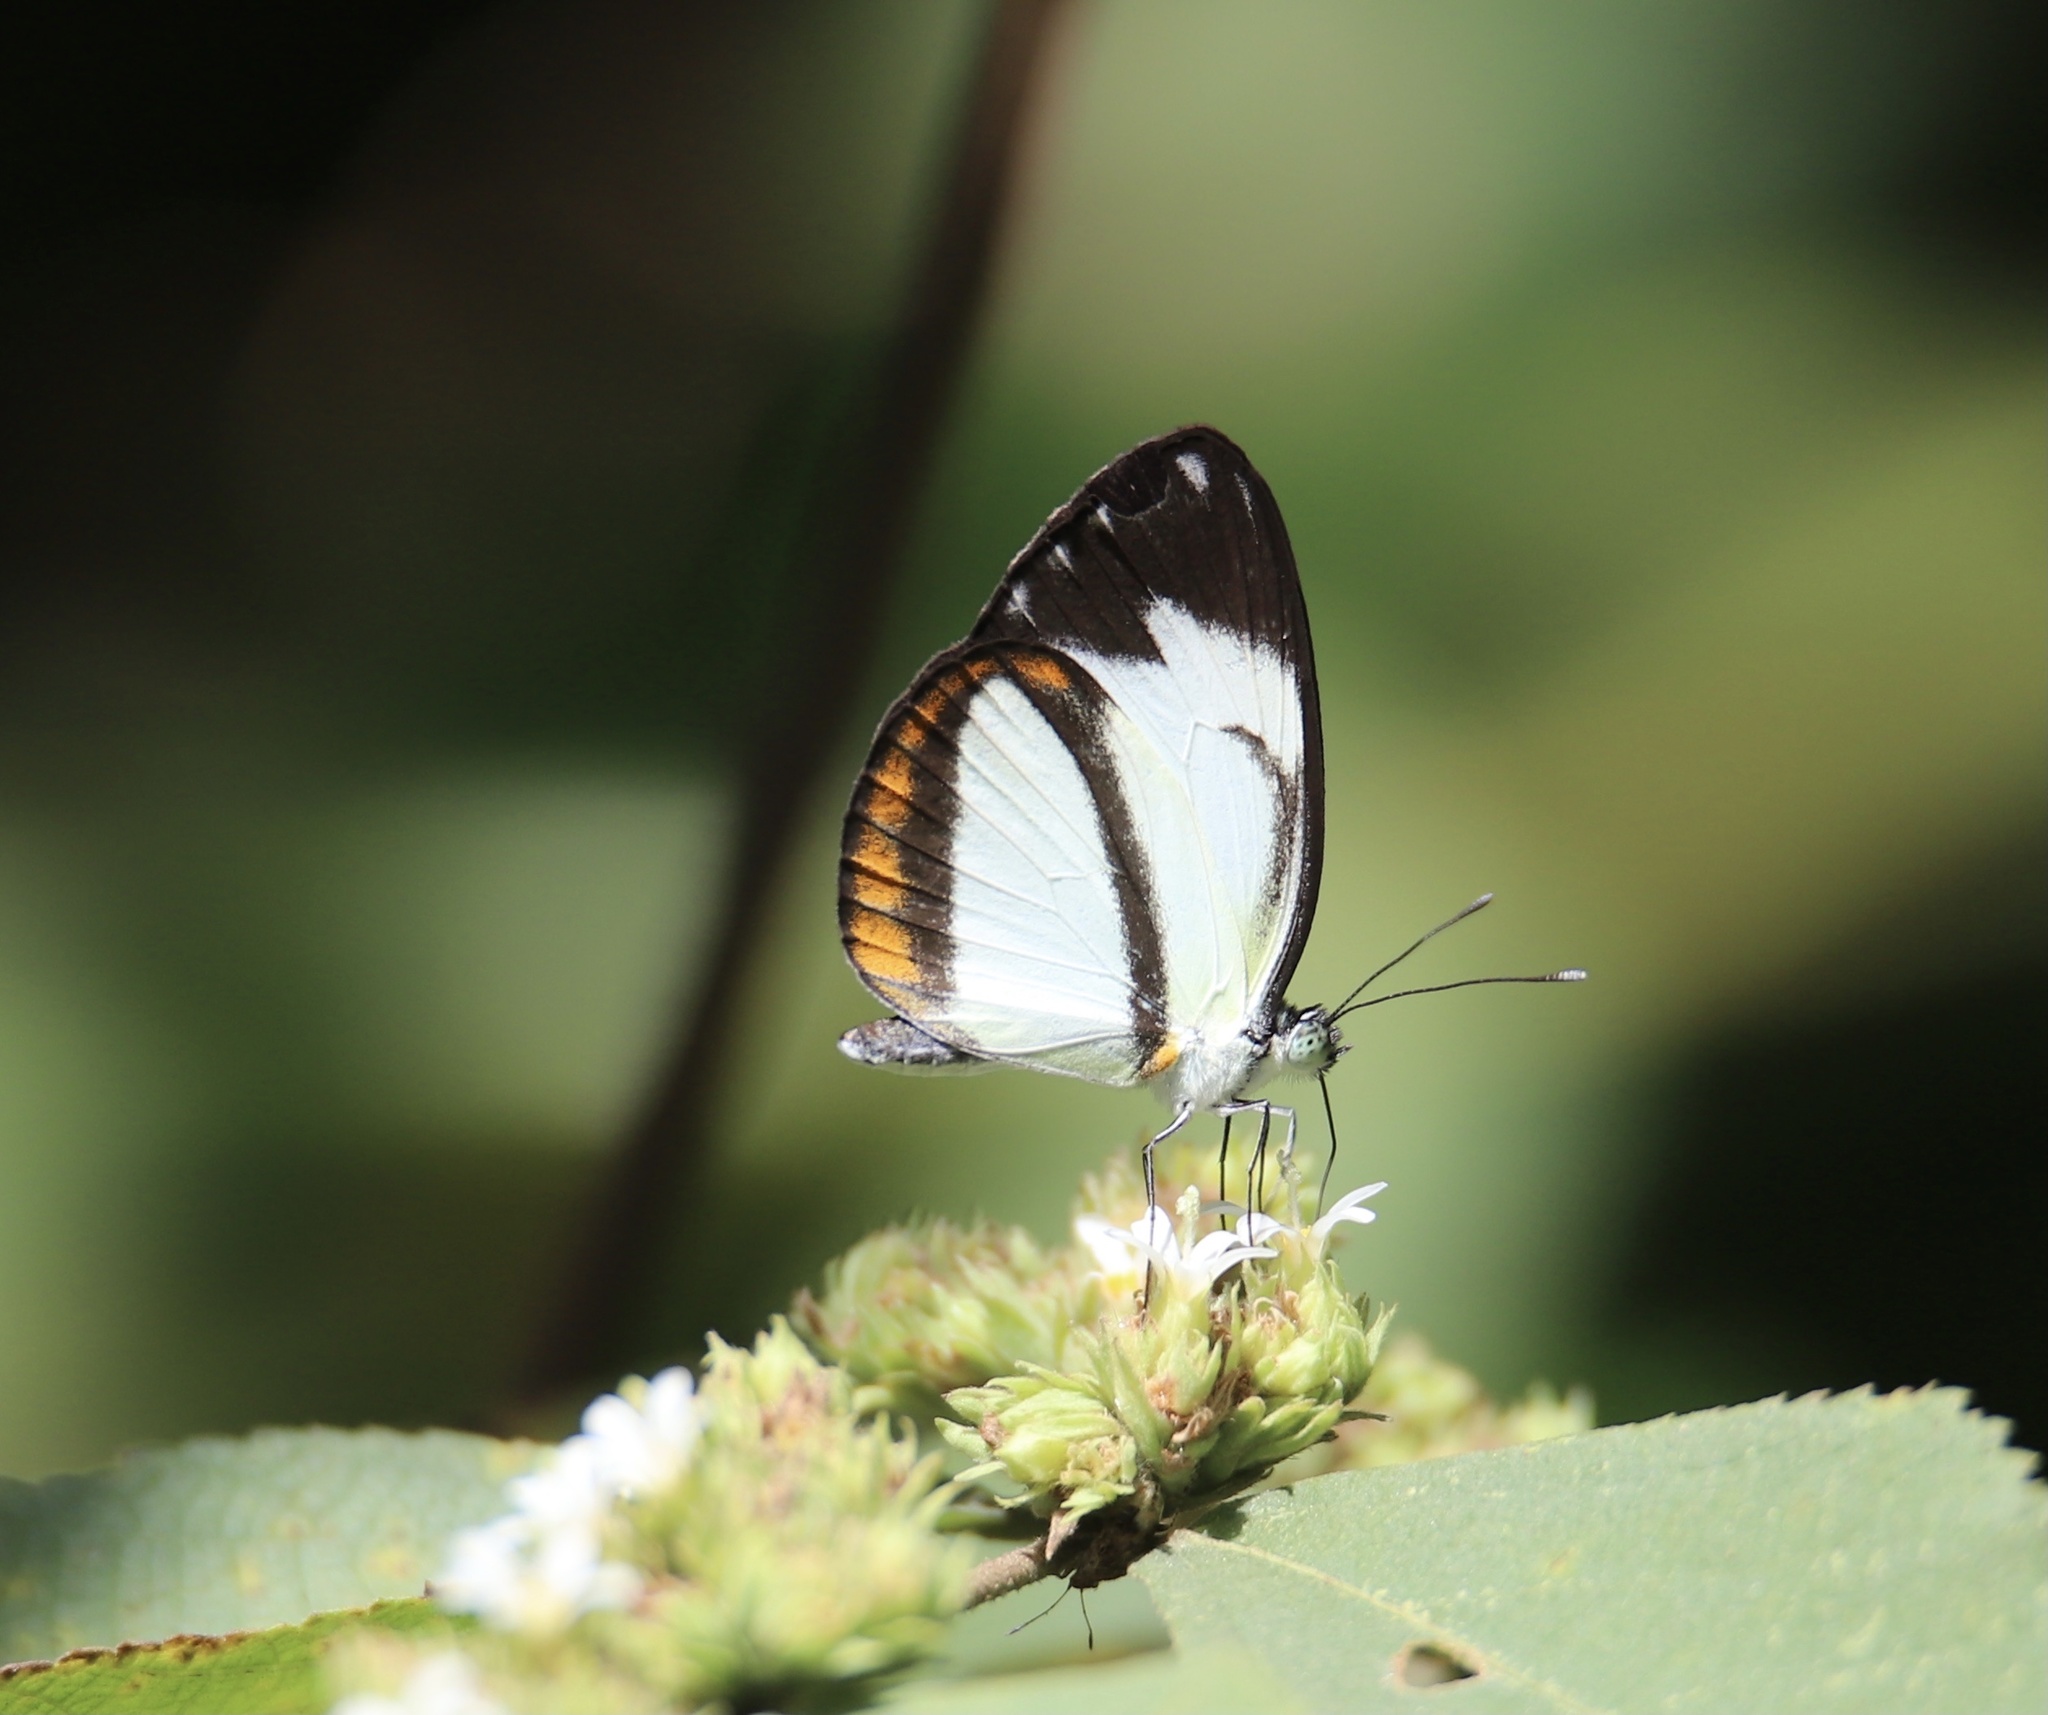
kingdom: Animalia
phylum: Arthropoda
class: Insecta
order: Lepidoptera
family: Pieridae
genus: Itaballia
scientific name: Itaballia pandosia
